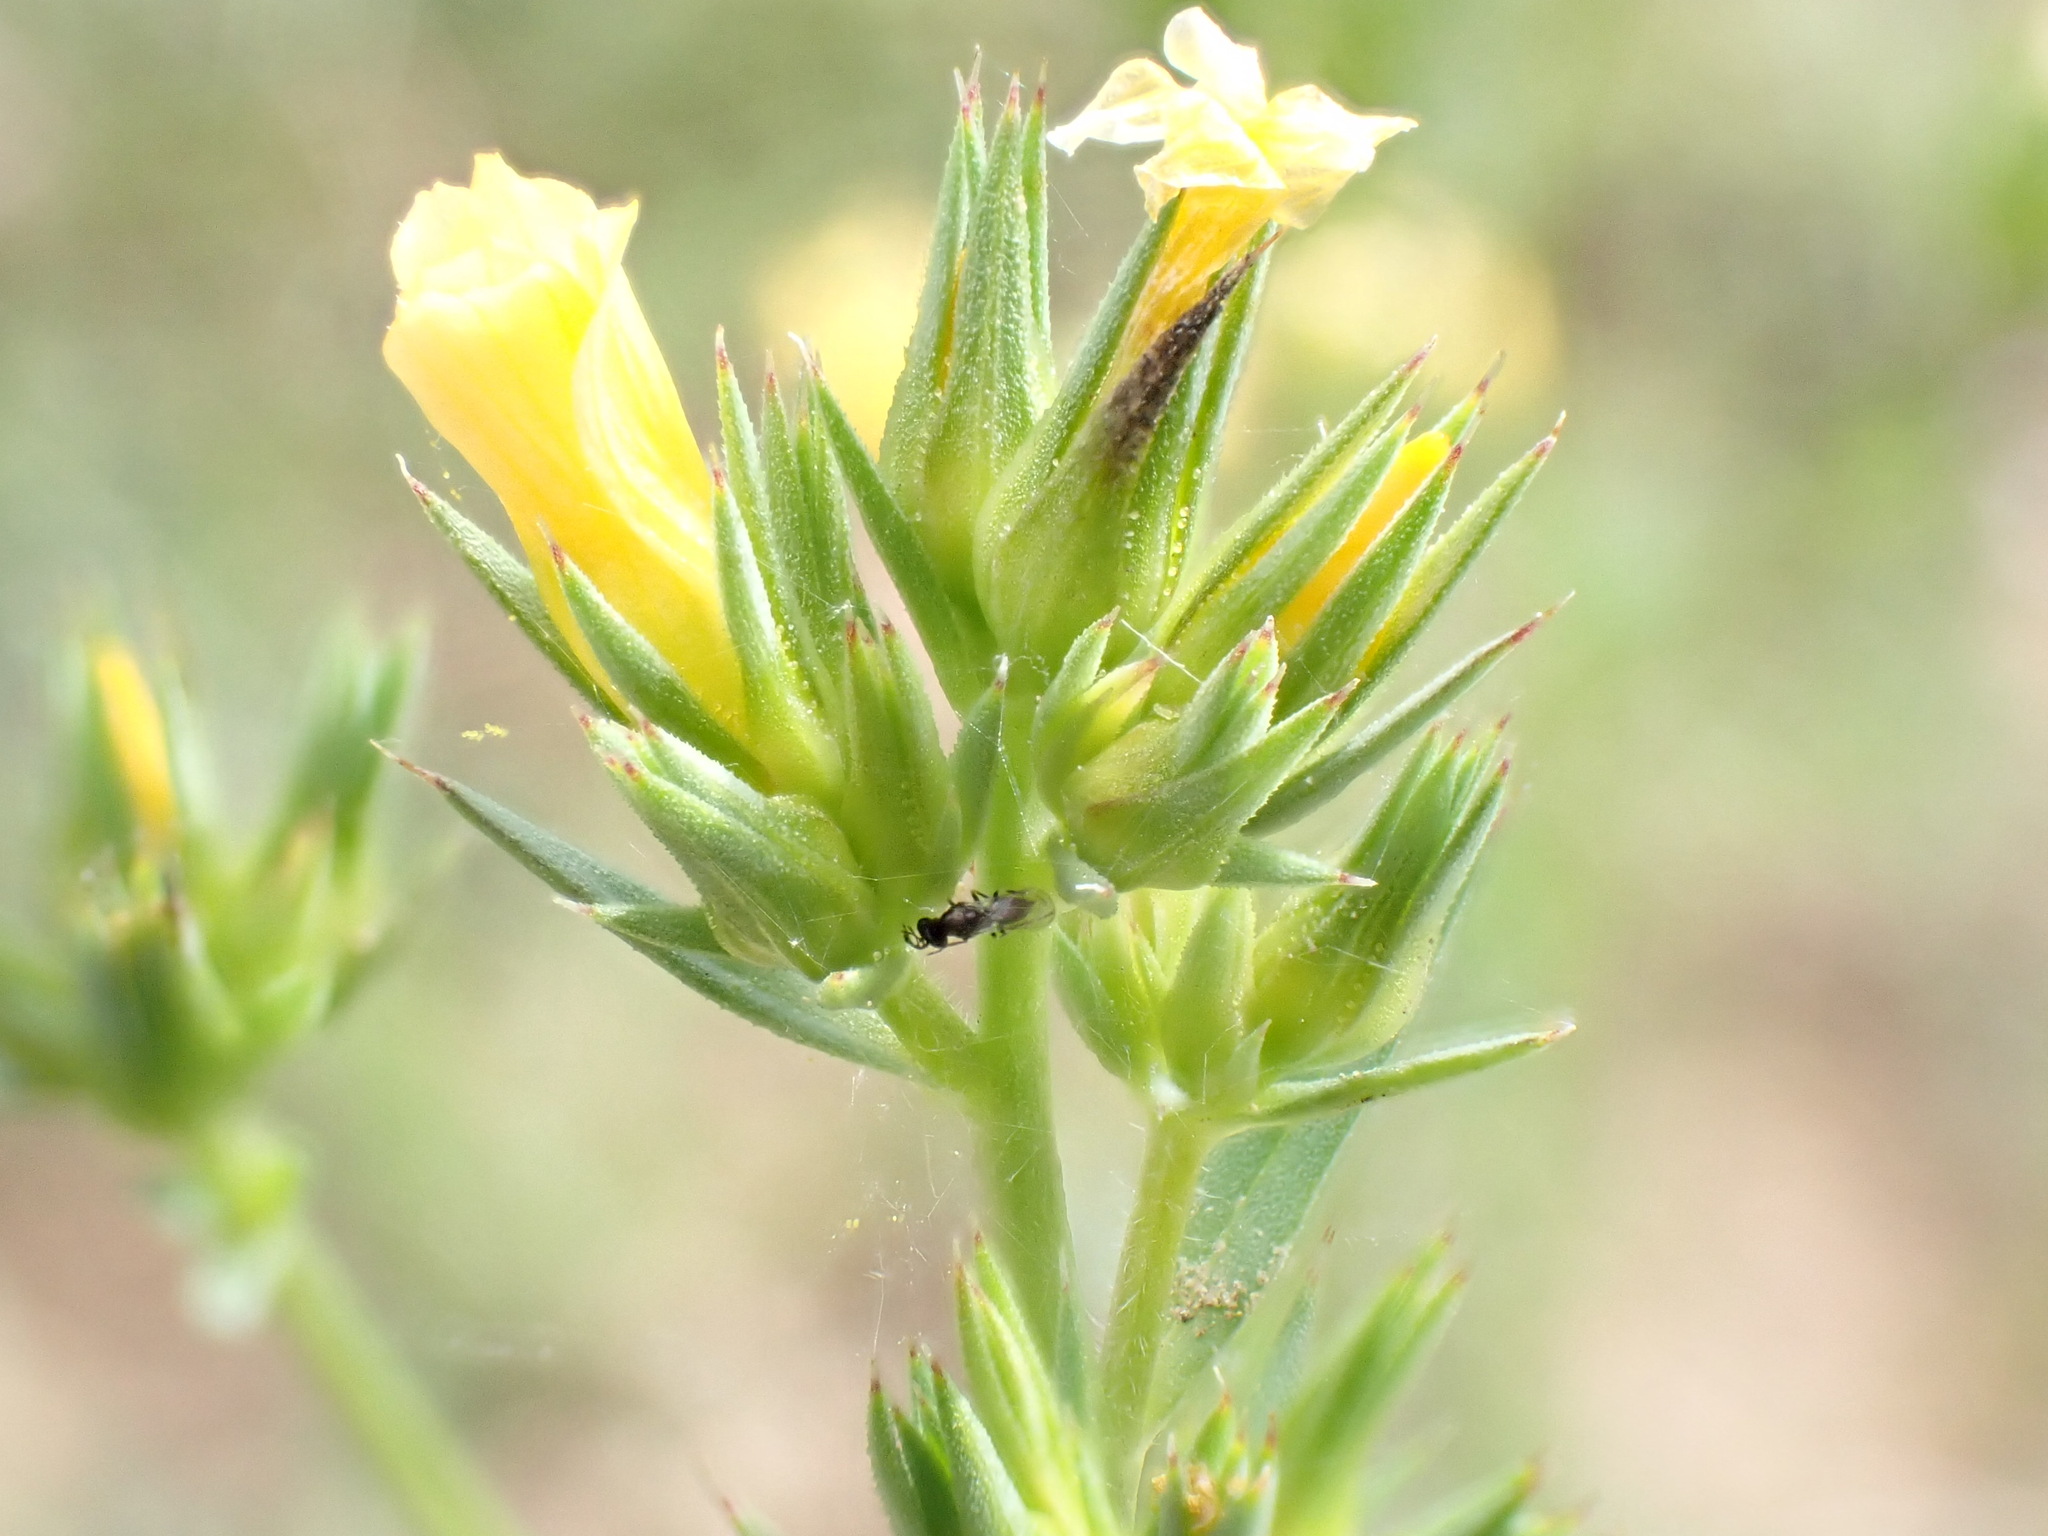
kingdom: Plantae
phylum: Tracheophyta
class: Magnoliopsida
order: Malpighiales
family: Linaceae
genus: Linum
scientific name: Linum strictum
